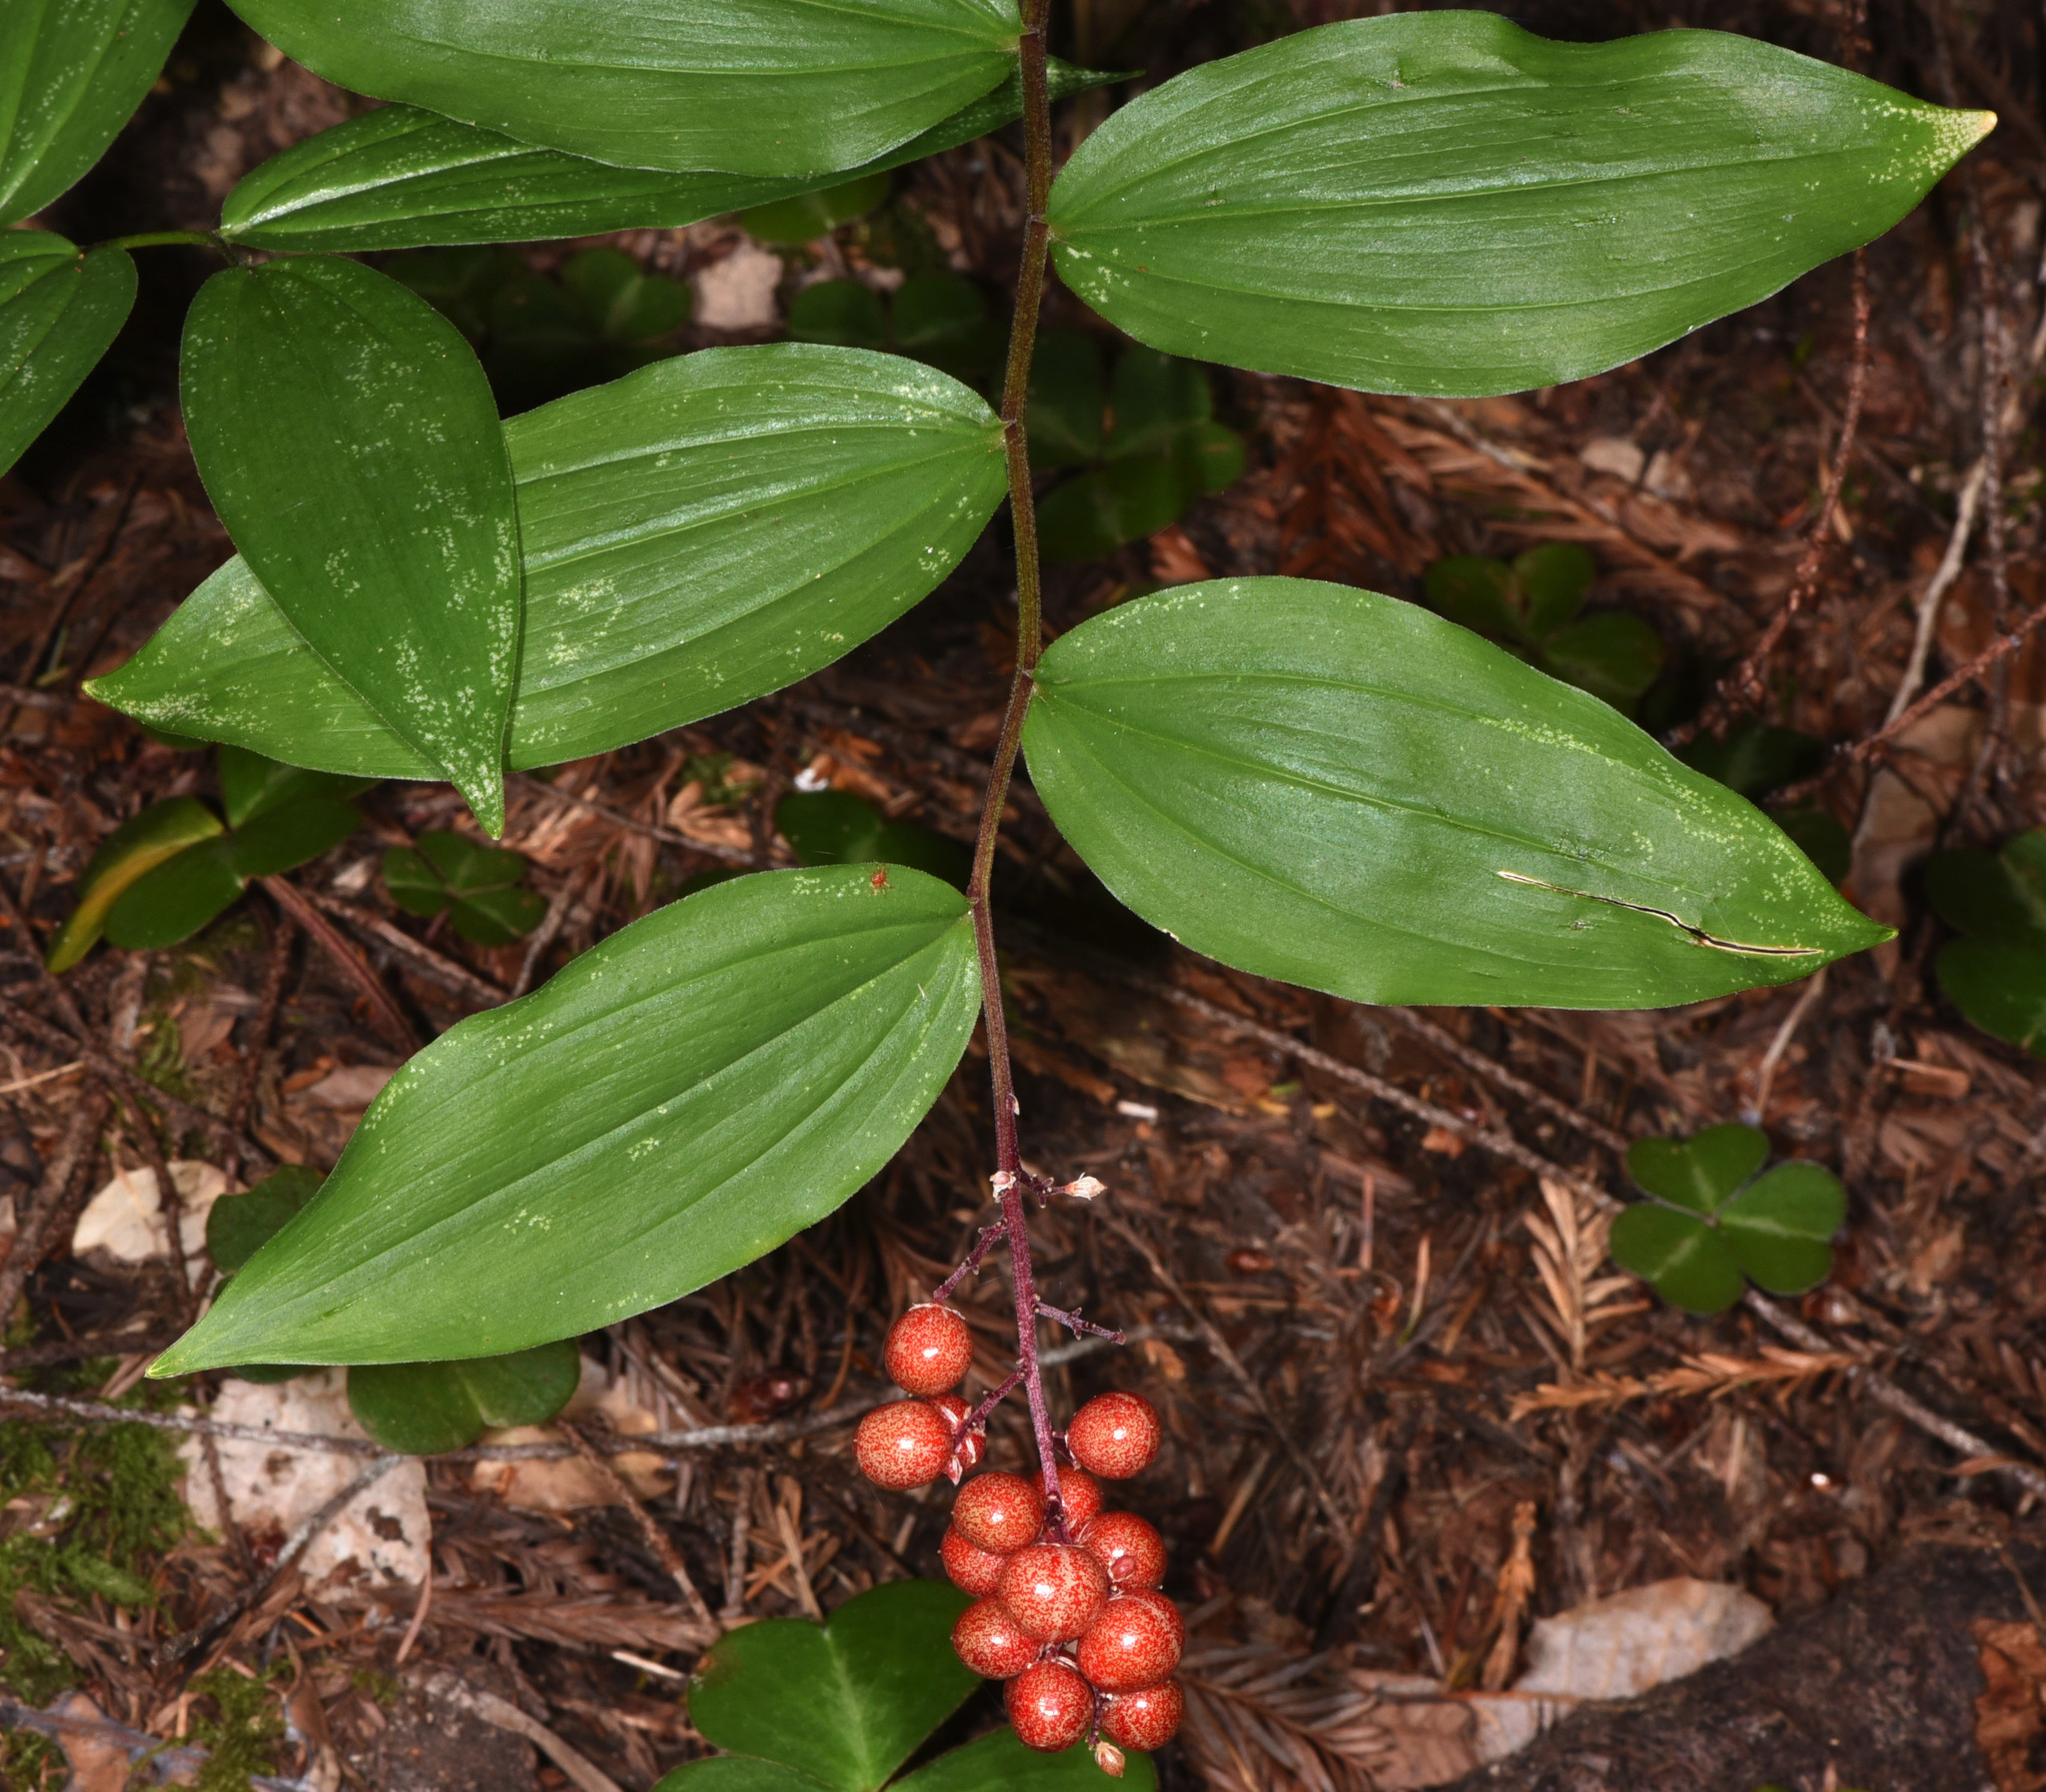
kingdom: Plantae
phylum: Tracheophyta
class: Liliopsida
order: Asparagales
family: Asparagaceae
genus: Maianthemum
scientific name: Maianthemum racemosum
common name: False spikenard
